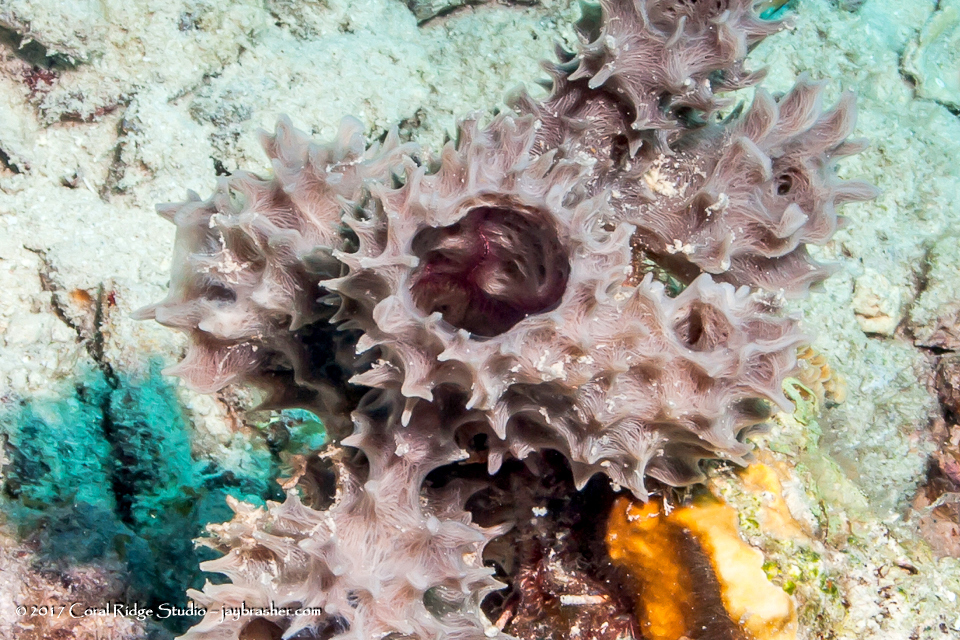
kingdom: Animalia
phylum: Porifera
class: Demospongiae
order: Haplosclerida
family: Callyspongiidae
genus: Callyspongia
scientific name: Callyspongia armigera
